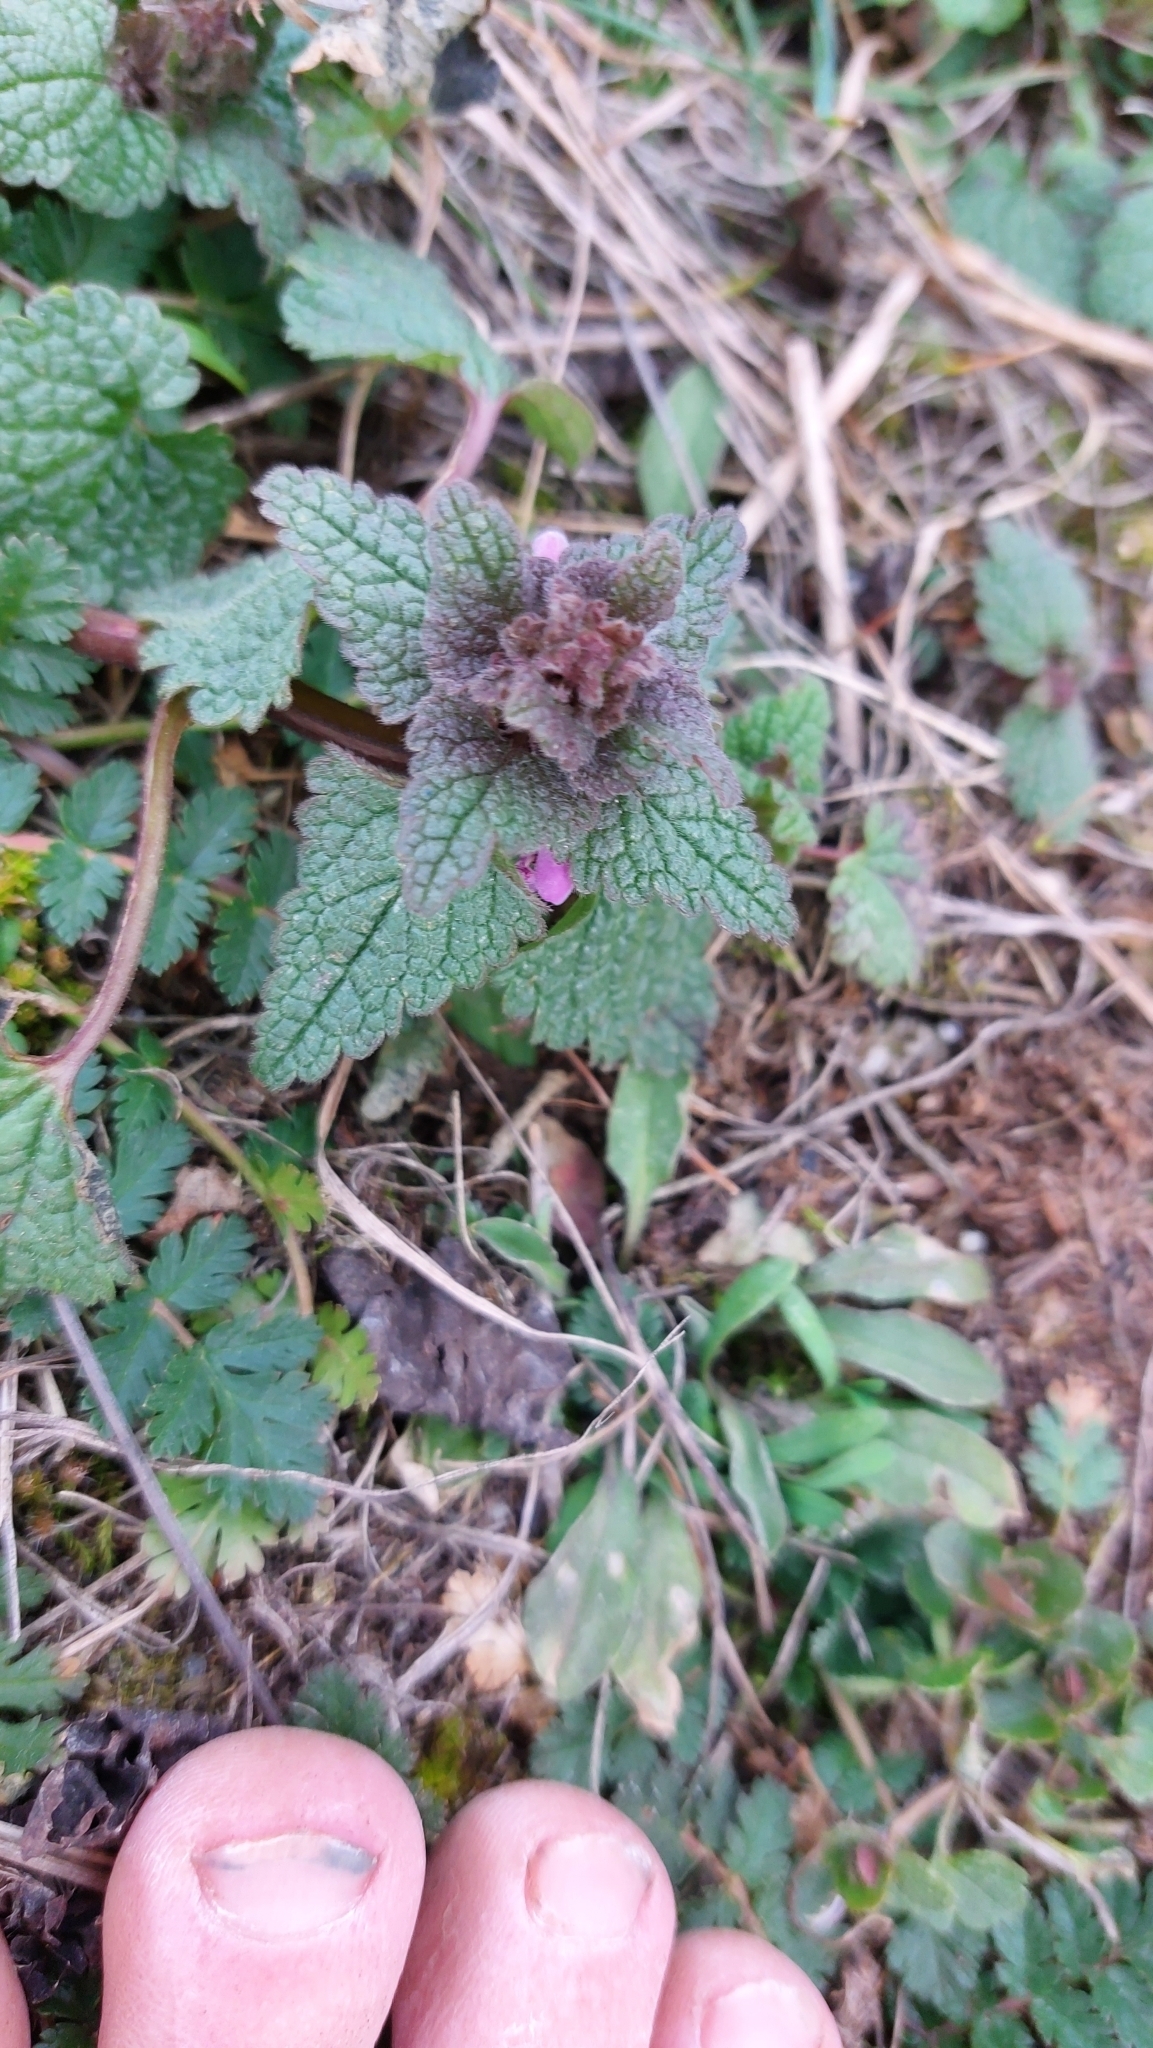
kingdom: Plantae
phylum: Tracheophyta
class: Magnoliopsida
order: Lamiales
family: Lamiaceae
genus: Lamium
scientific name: Lamium purpureum
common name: Red dead-nettle
